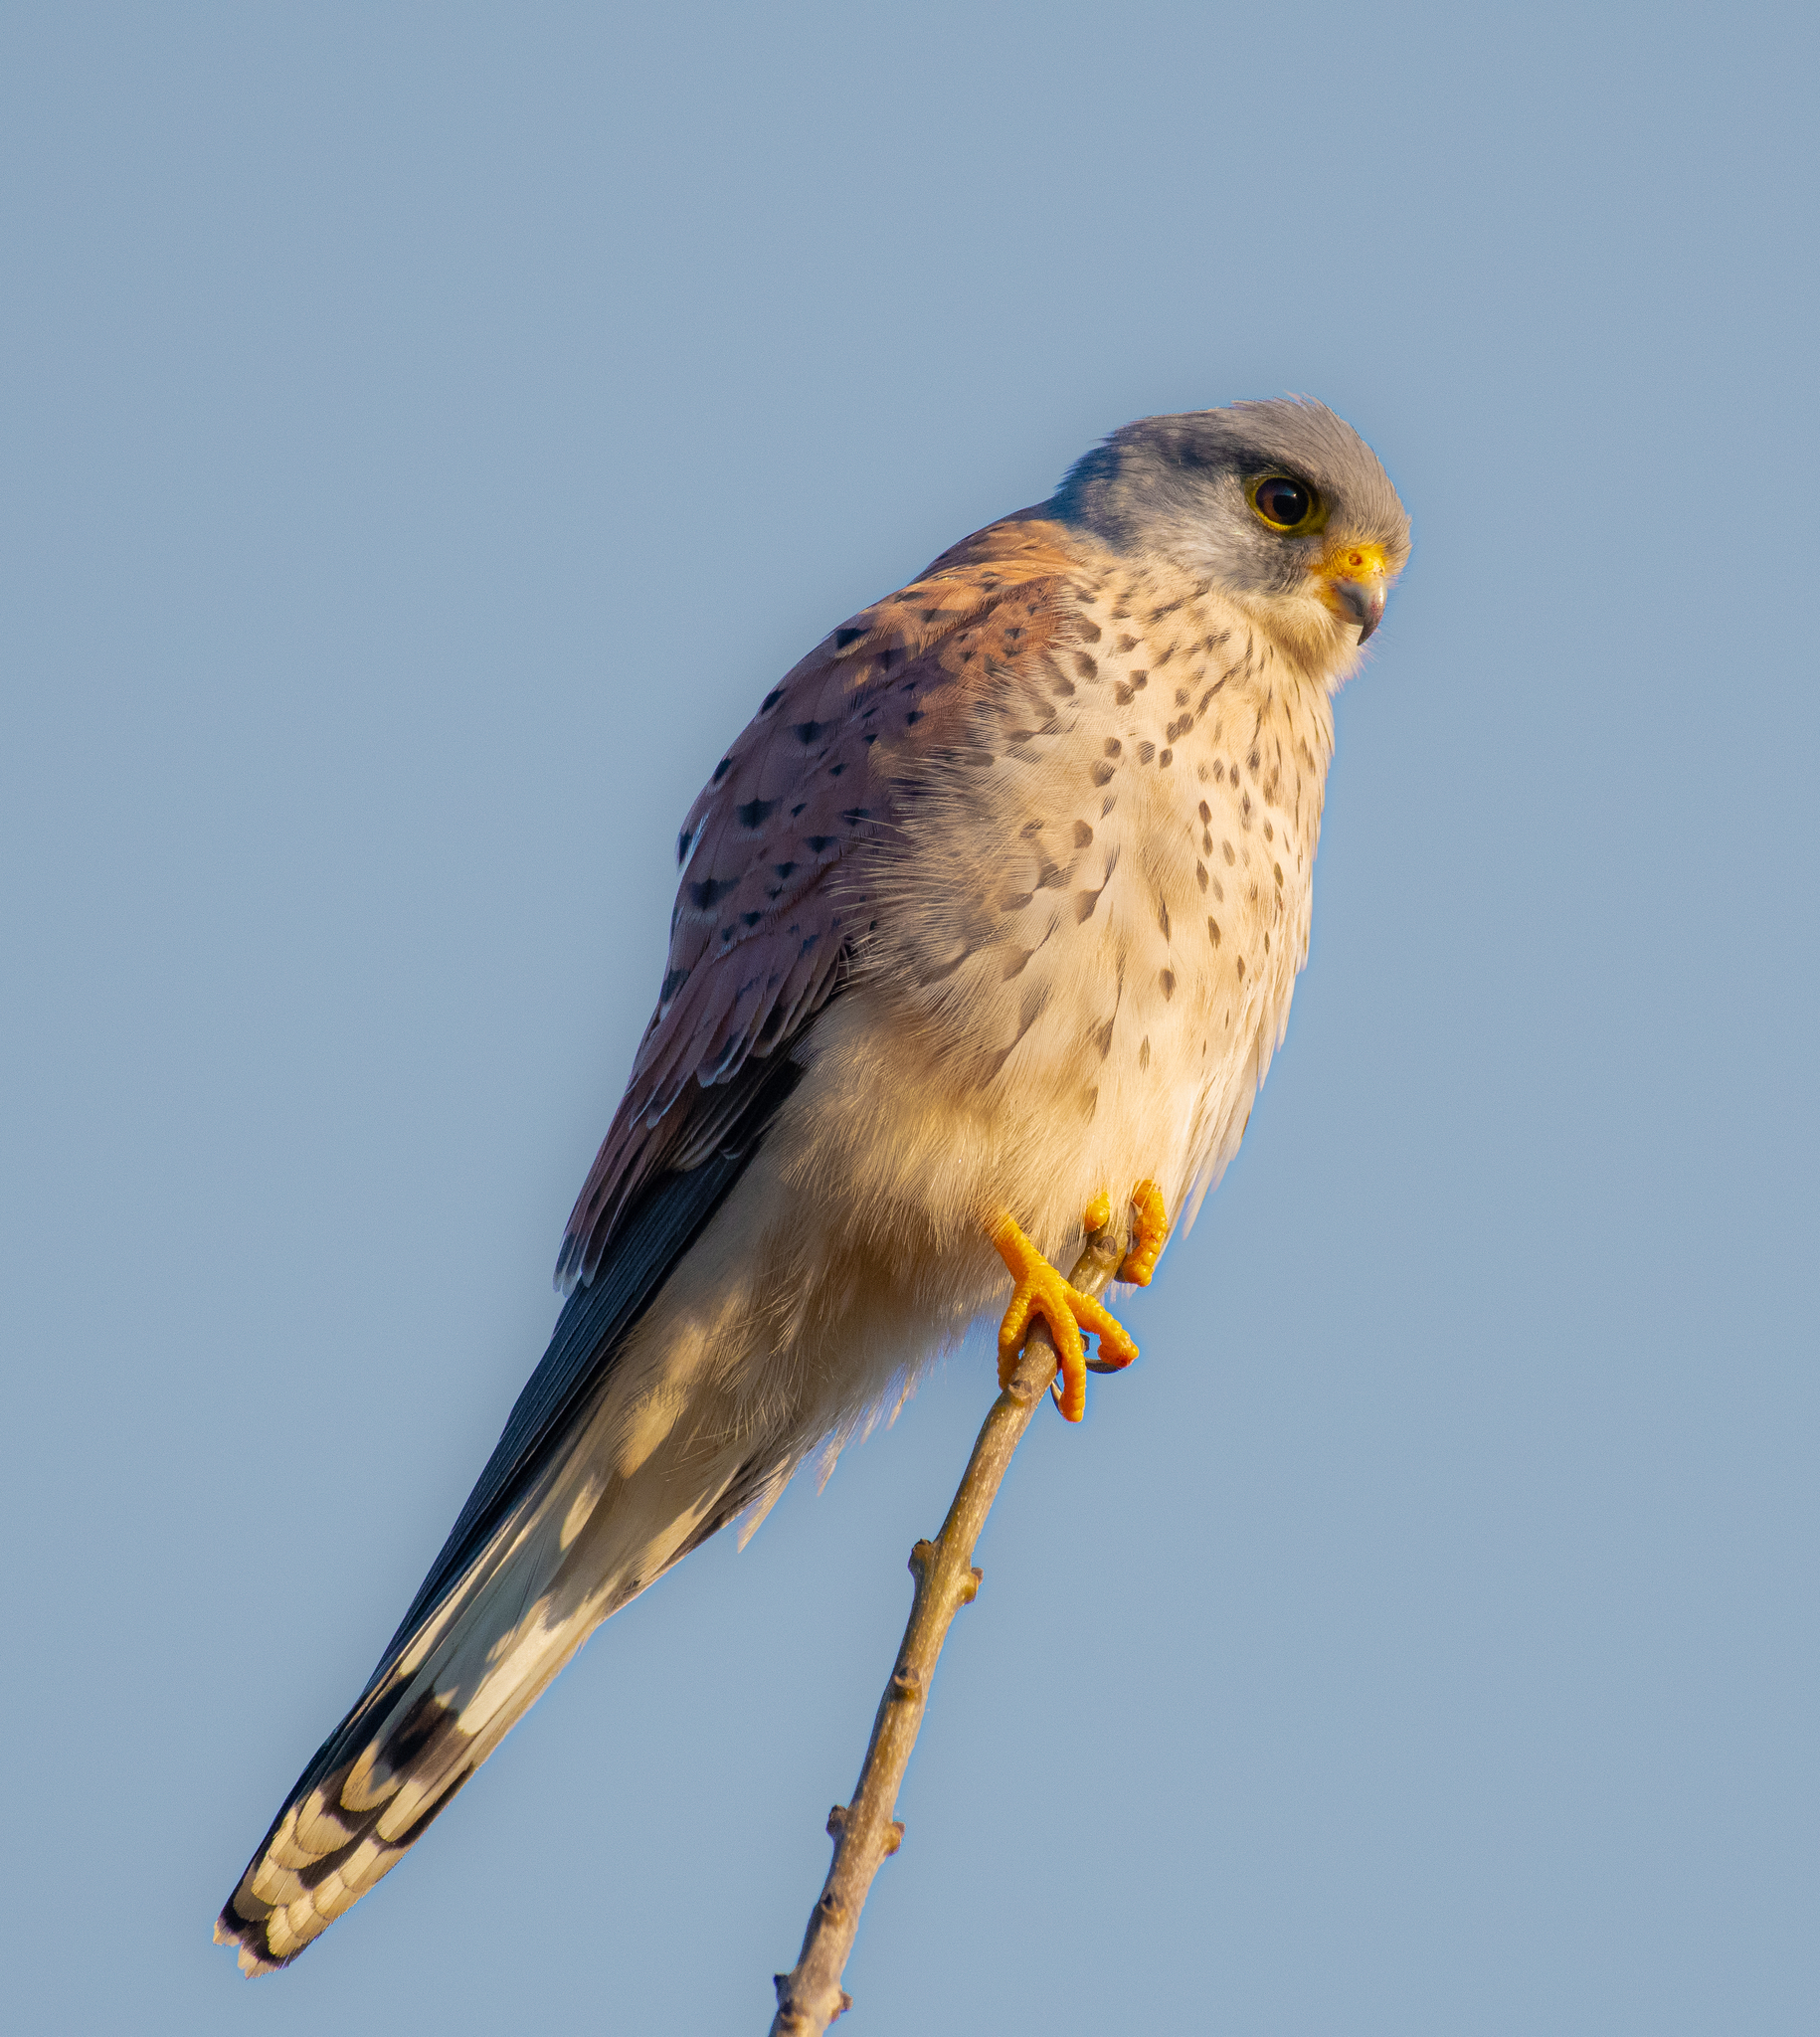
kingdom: Animalia
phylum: Chordata
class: Aves
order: Falconiformes
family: Falconidae
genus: Falco
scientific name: Falco tinnunculus
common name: Common kestrel
